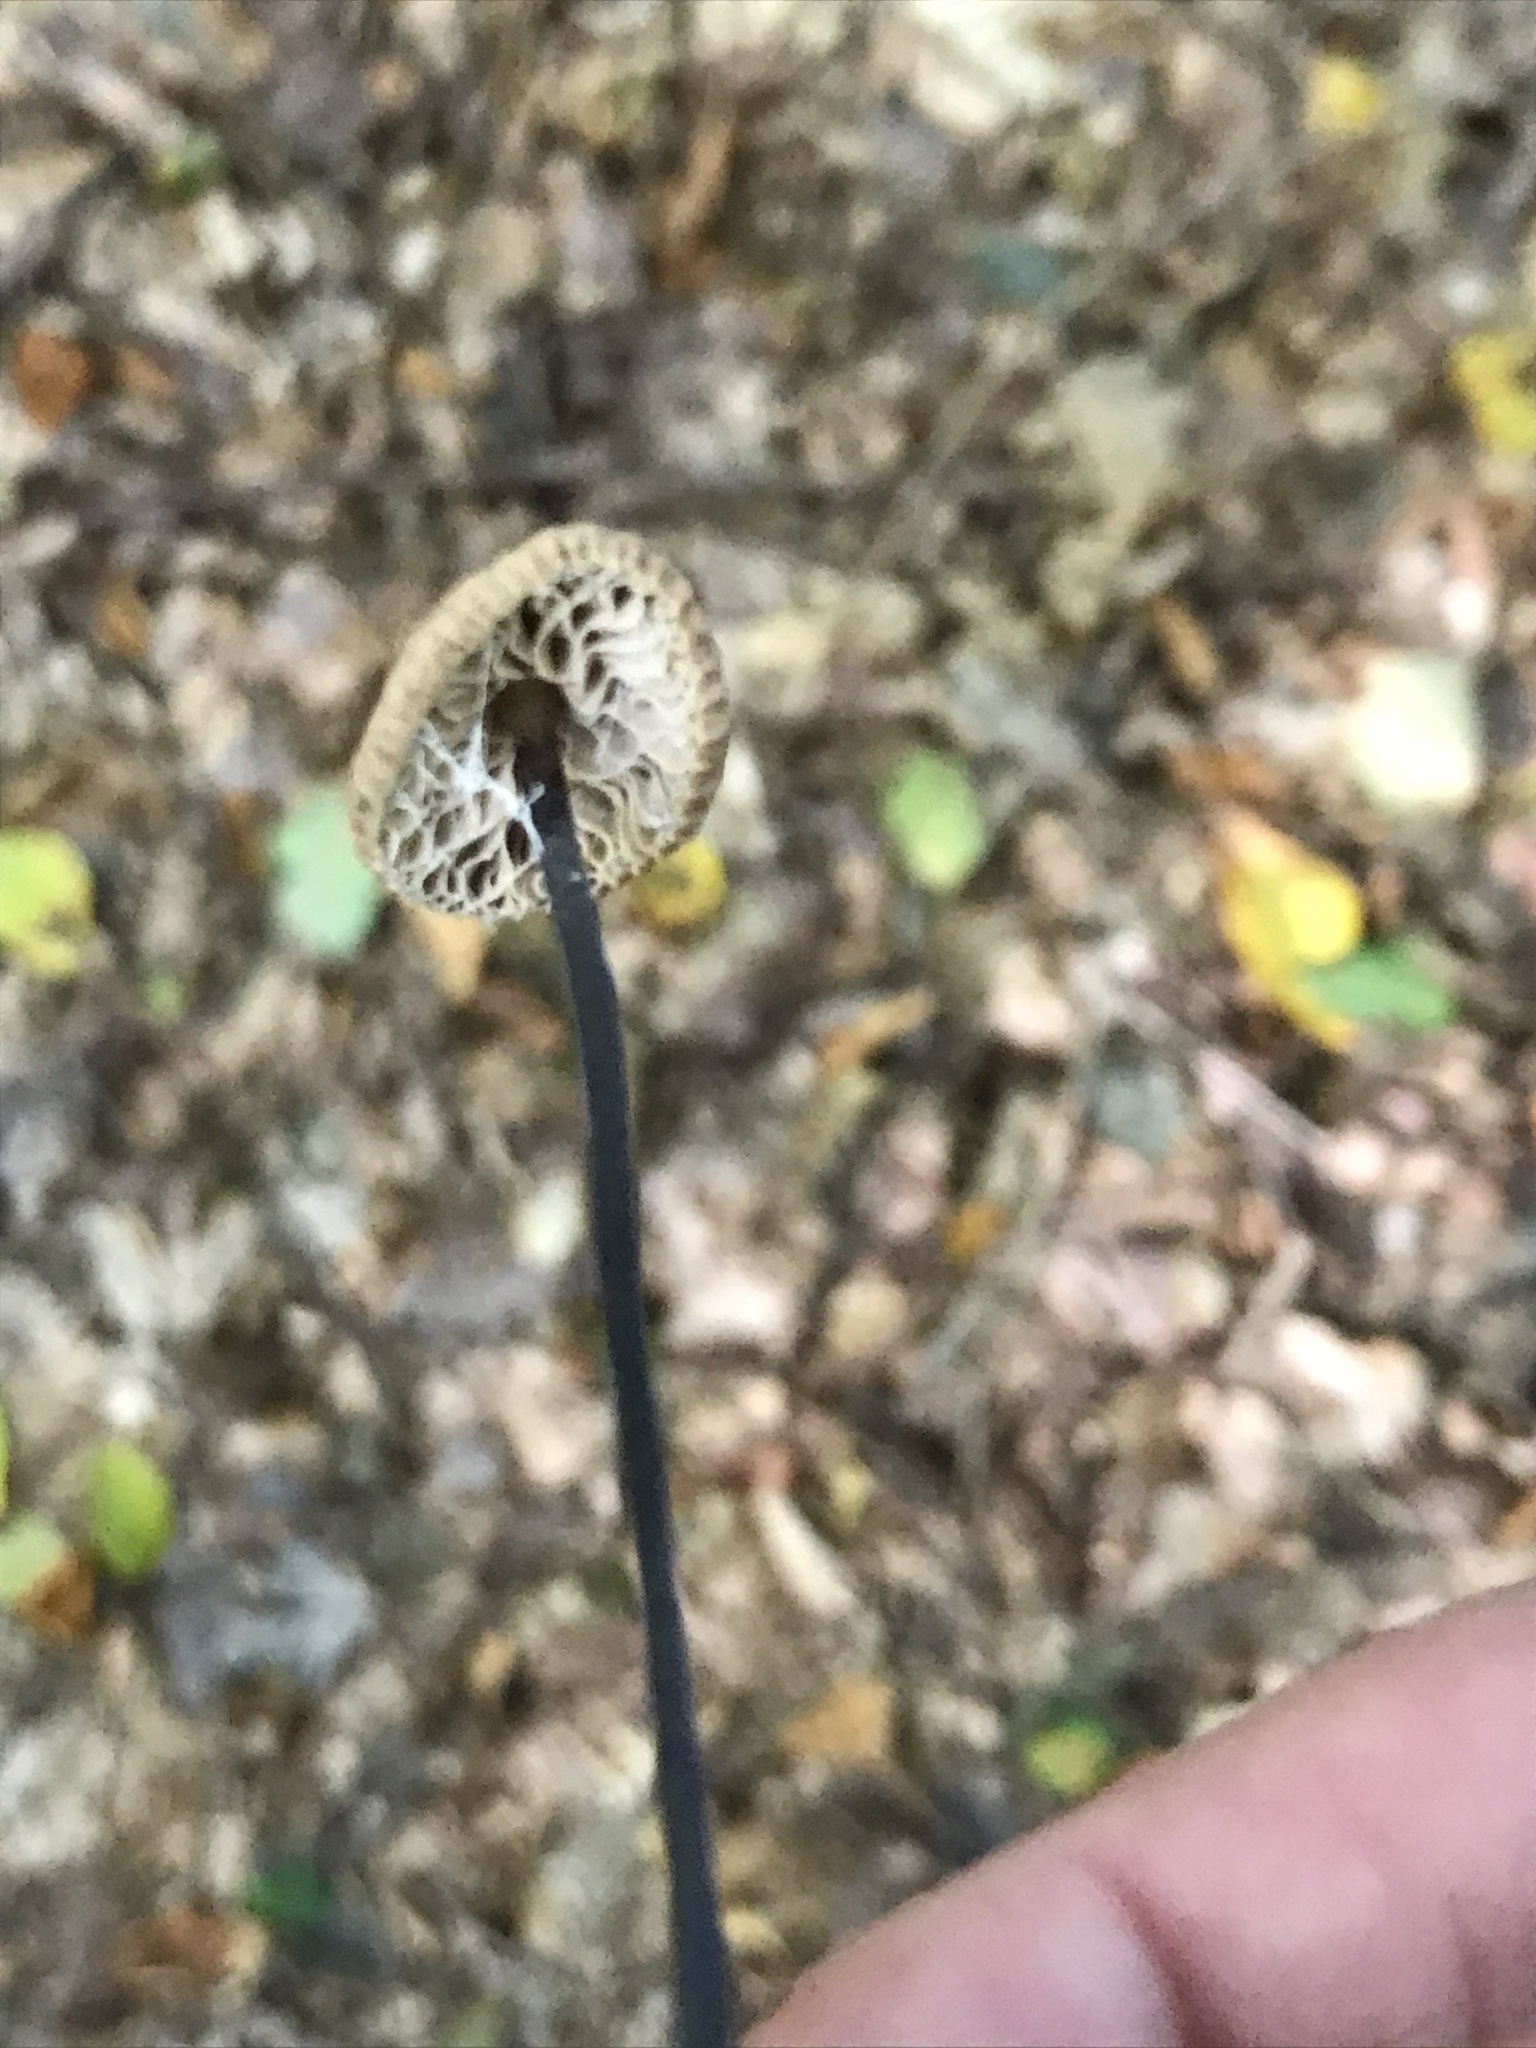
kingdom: Fungi
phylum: Basidiomycota
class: Agaricomycetes
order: Agaricales
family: Omphalotaceae
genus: Mycetinis
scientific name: Mycetinis alliaceus
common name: Garlic parachute
